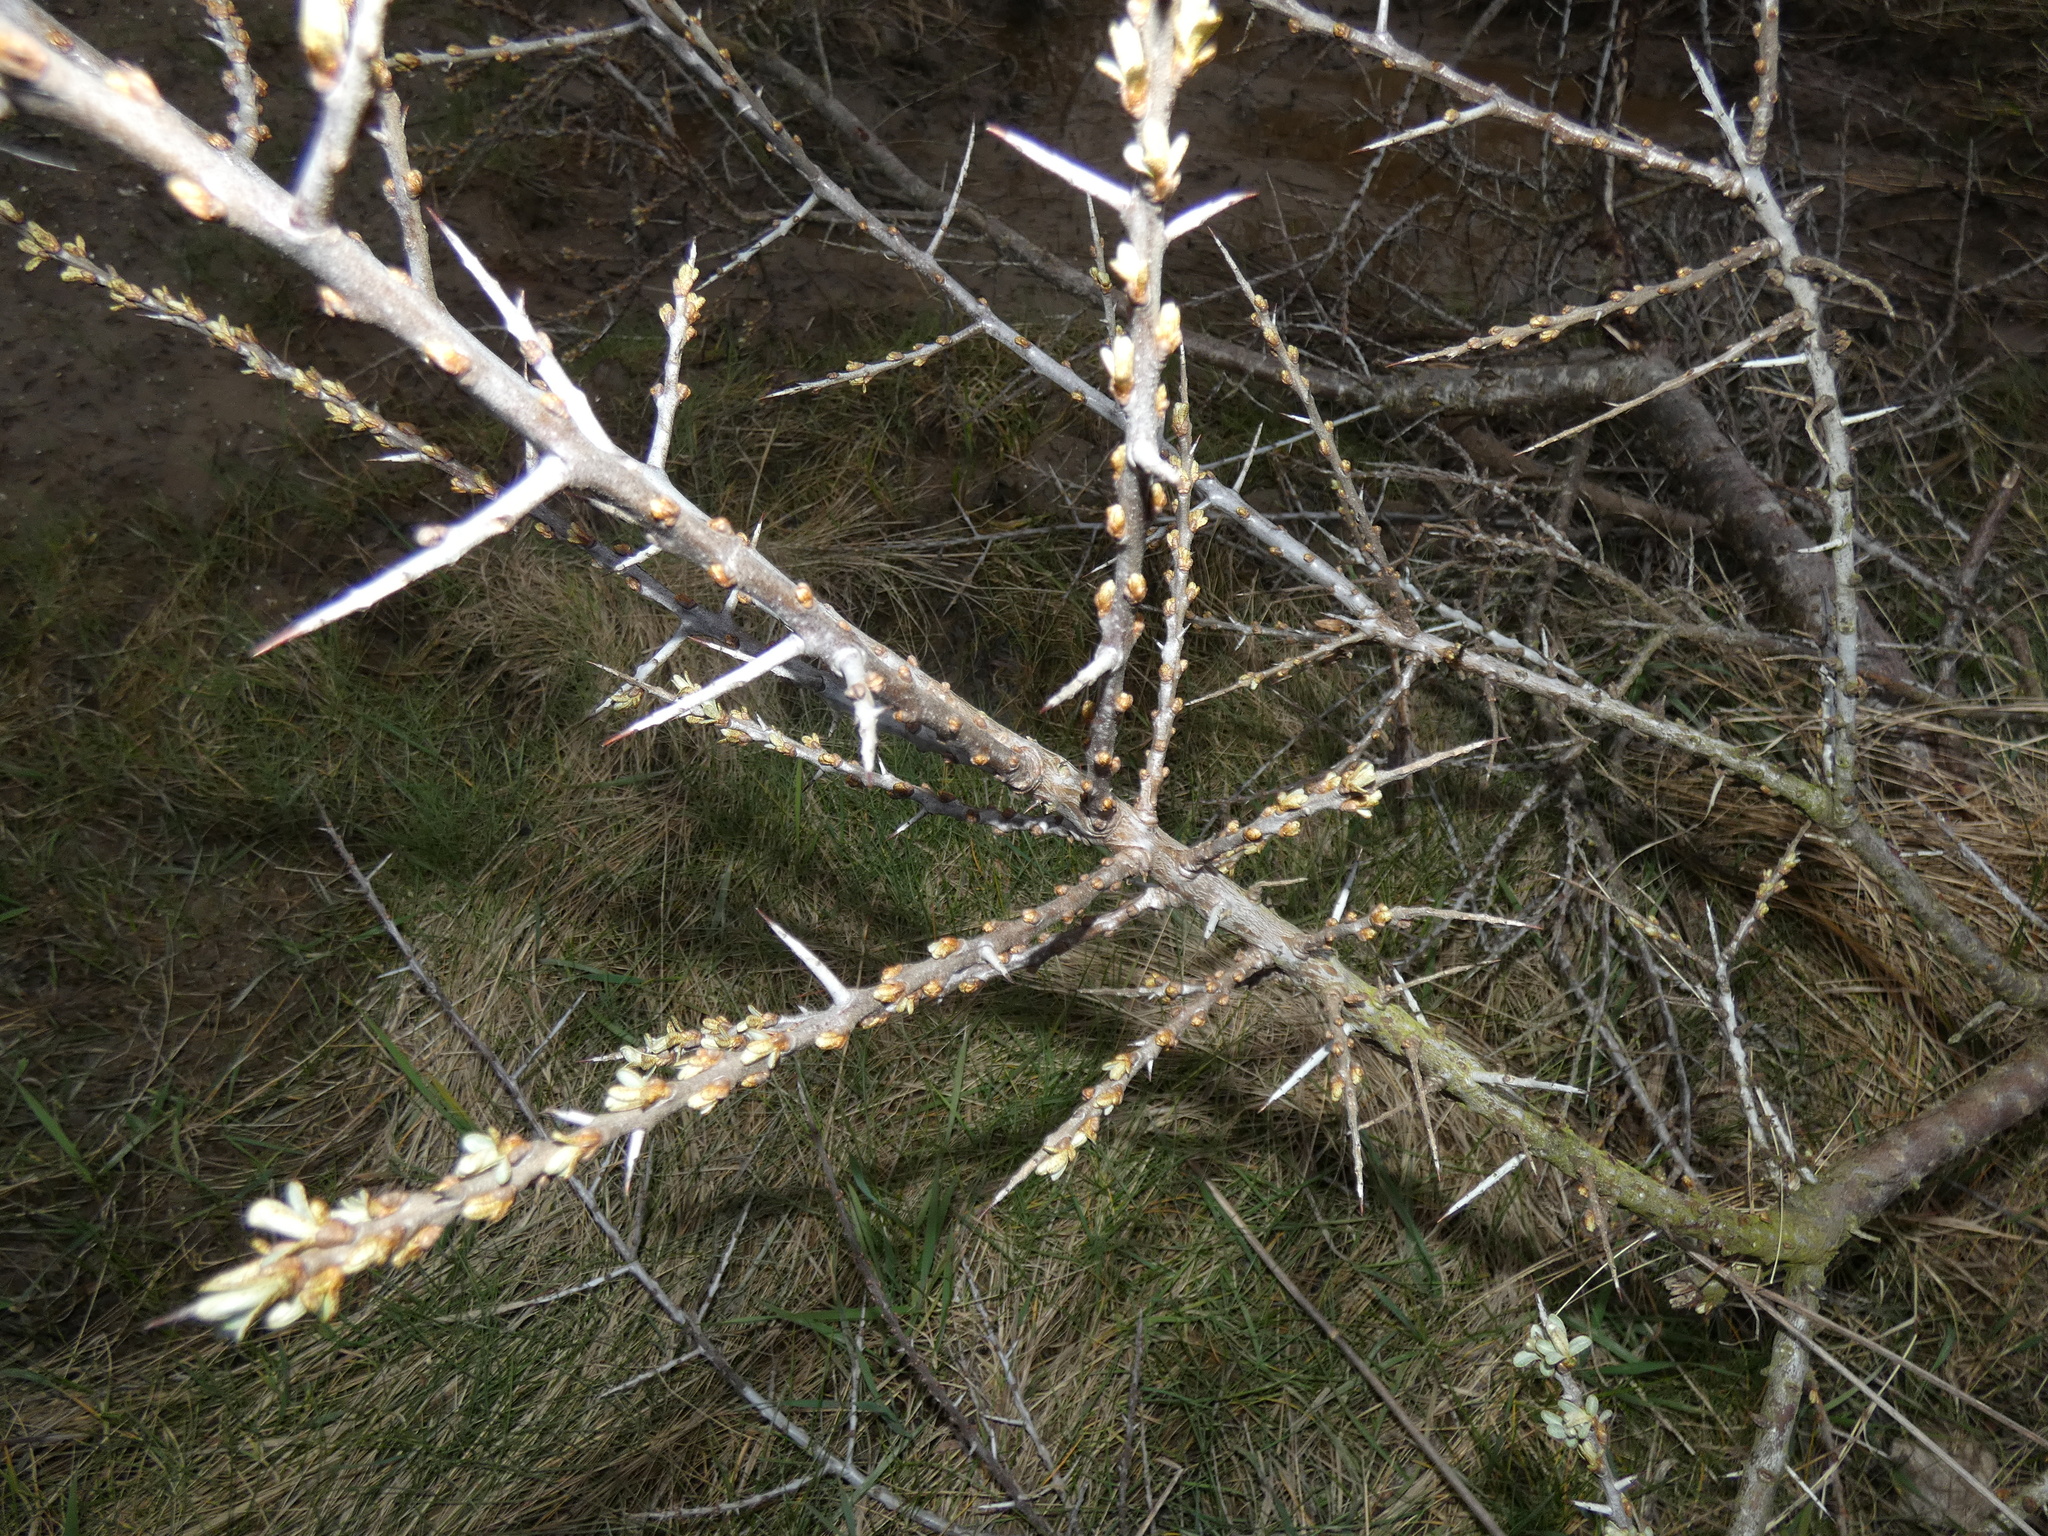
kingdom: Plantae
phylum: Tracheophyta
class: Magnoliopsida
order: Rosales
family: Elaeagnaceae
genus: Hippophae
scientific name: Hippophae rhamnoides
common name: Sea-buckthorn
